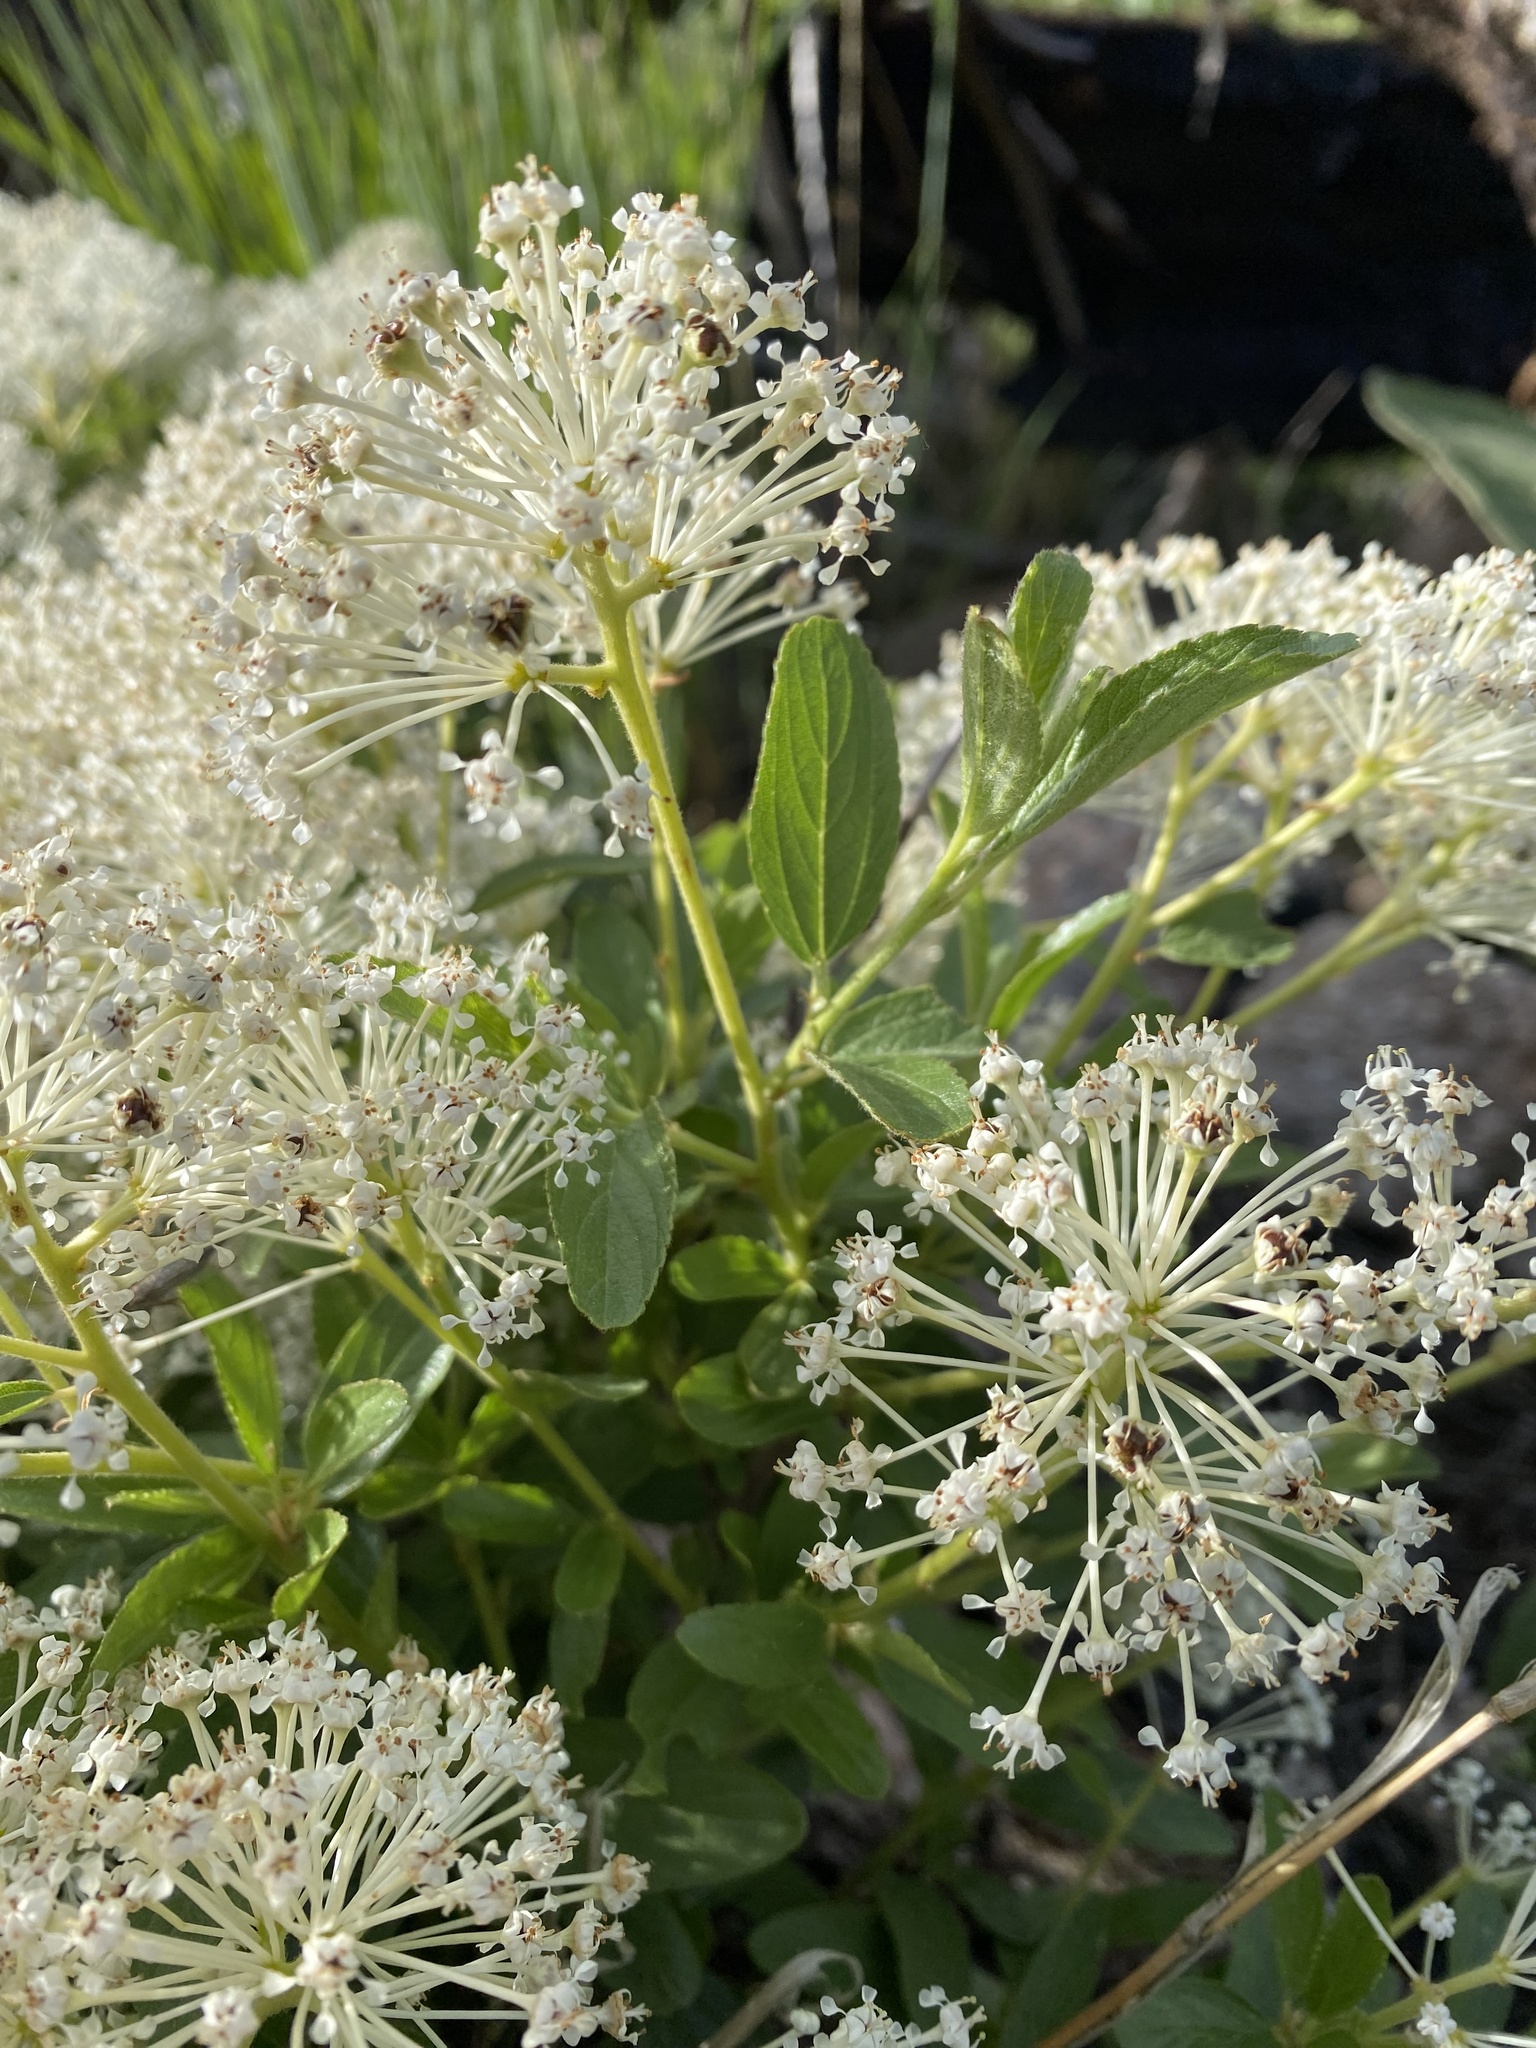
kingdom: Plantae
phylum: Tracheophyta
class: Magnoliopsida
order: Rosales
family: Rhamnaceae
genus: Ceanothus
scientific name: Ceanothus herbaceus
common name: Inland ceanothus
